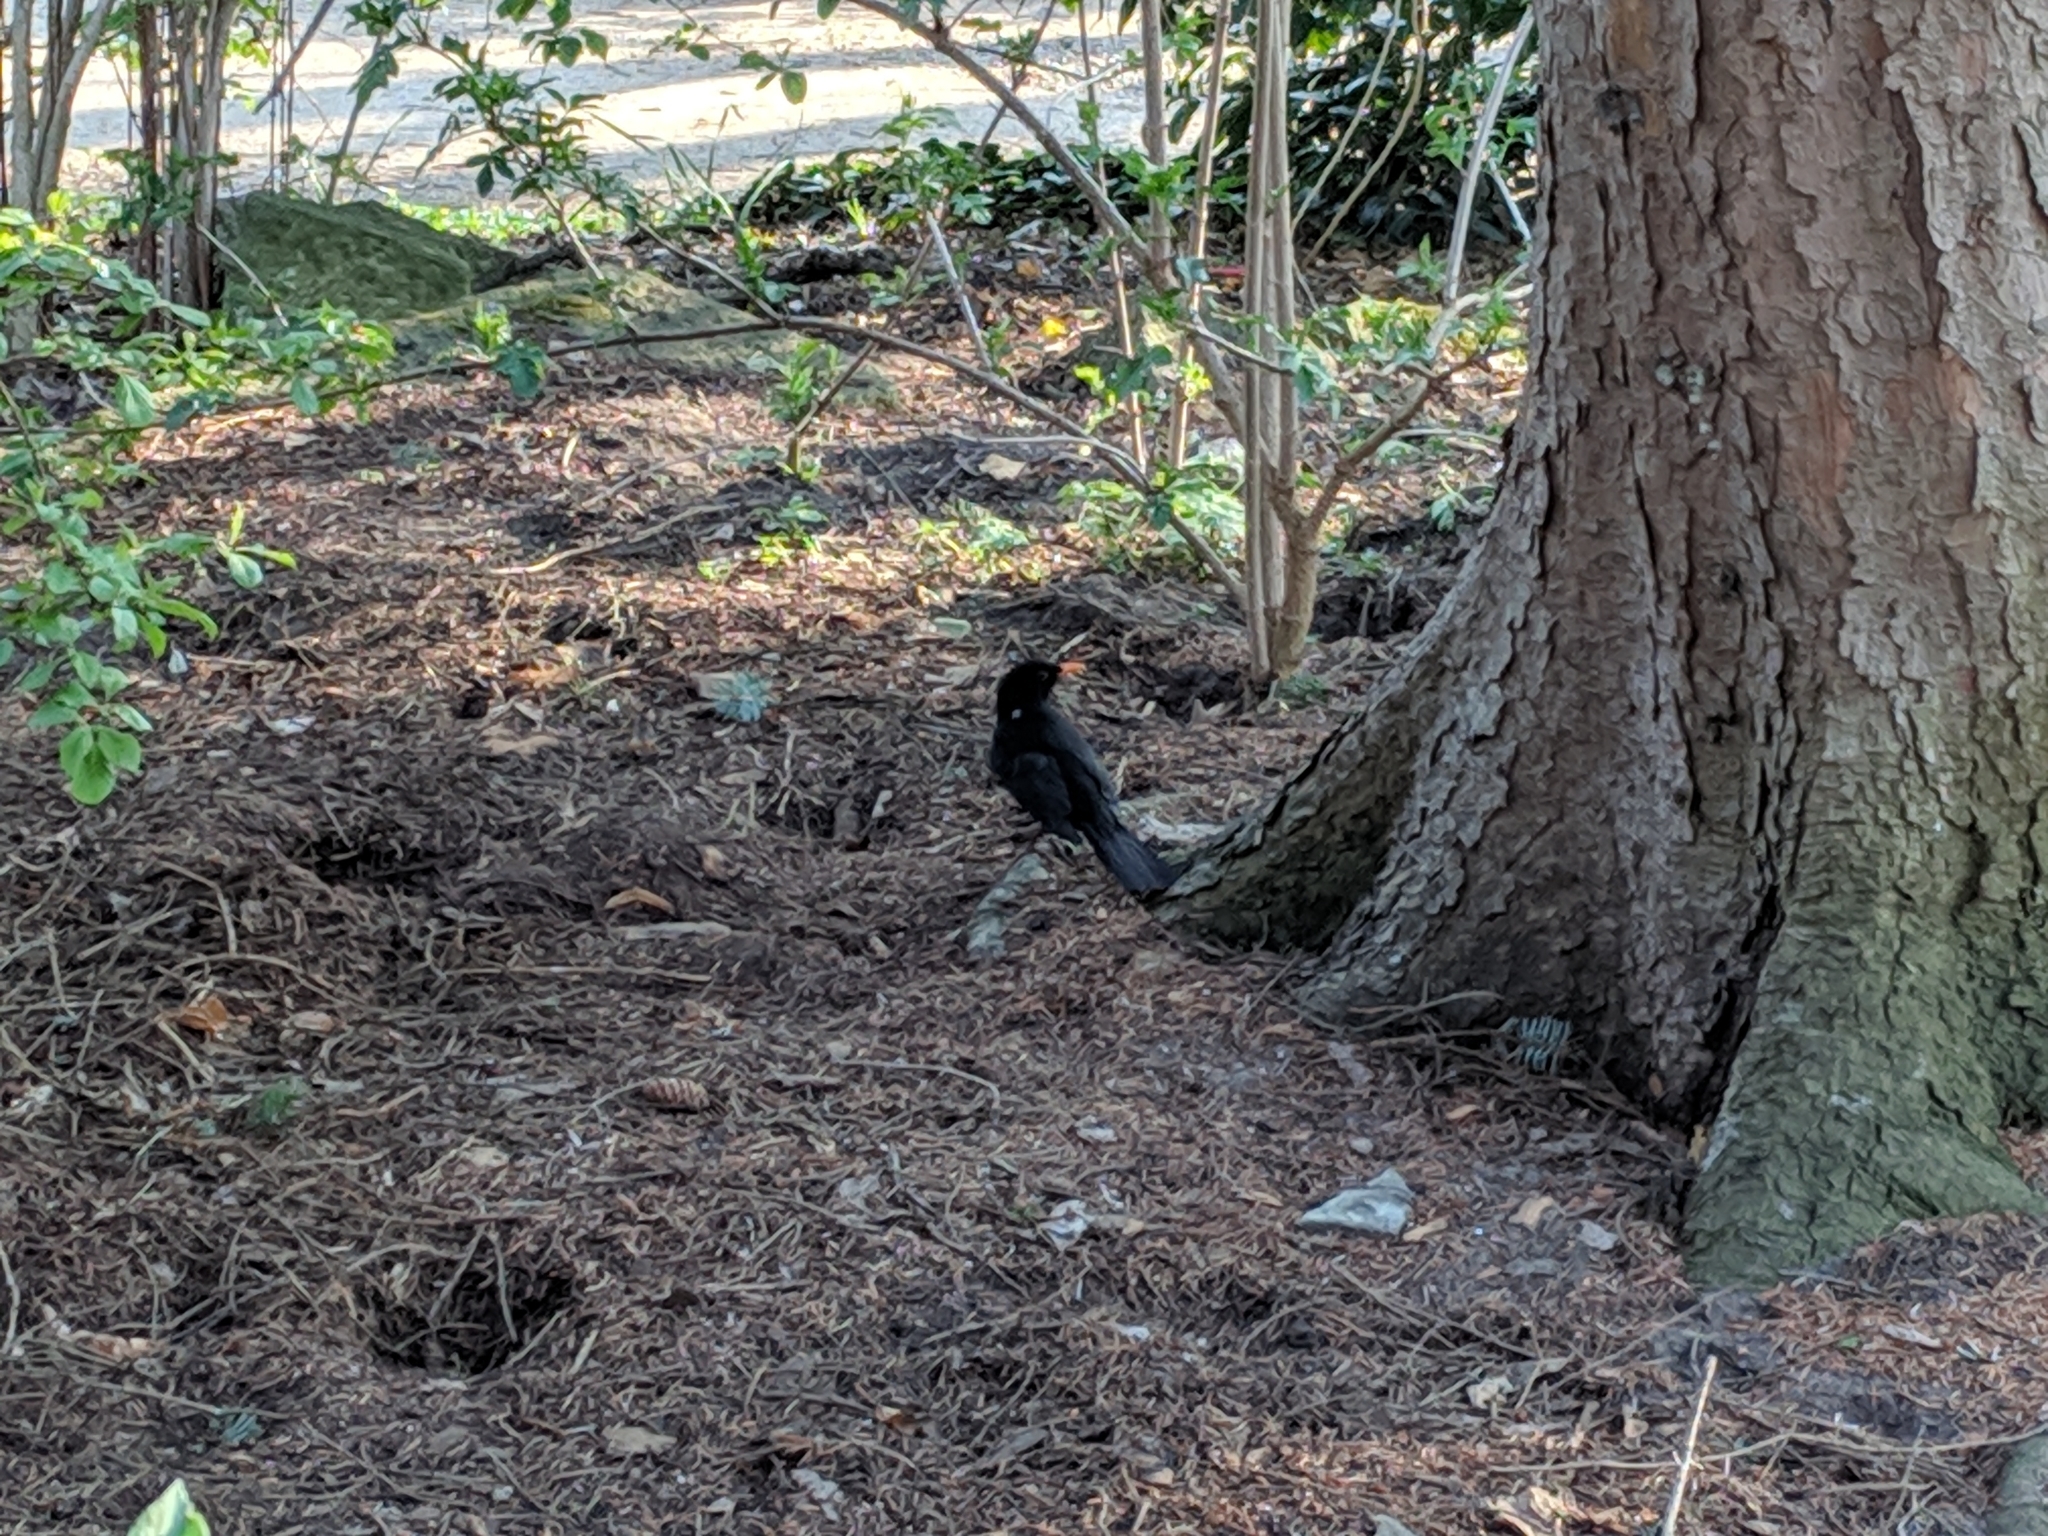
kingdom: Animalia
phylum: Chordata
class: Aves
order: Passeriformes
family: Turdidae
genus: Turdus
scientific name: Turdus merula
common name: Common blackbird
